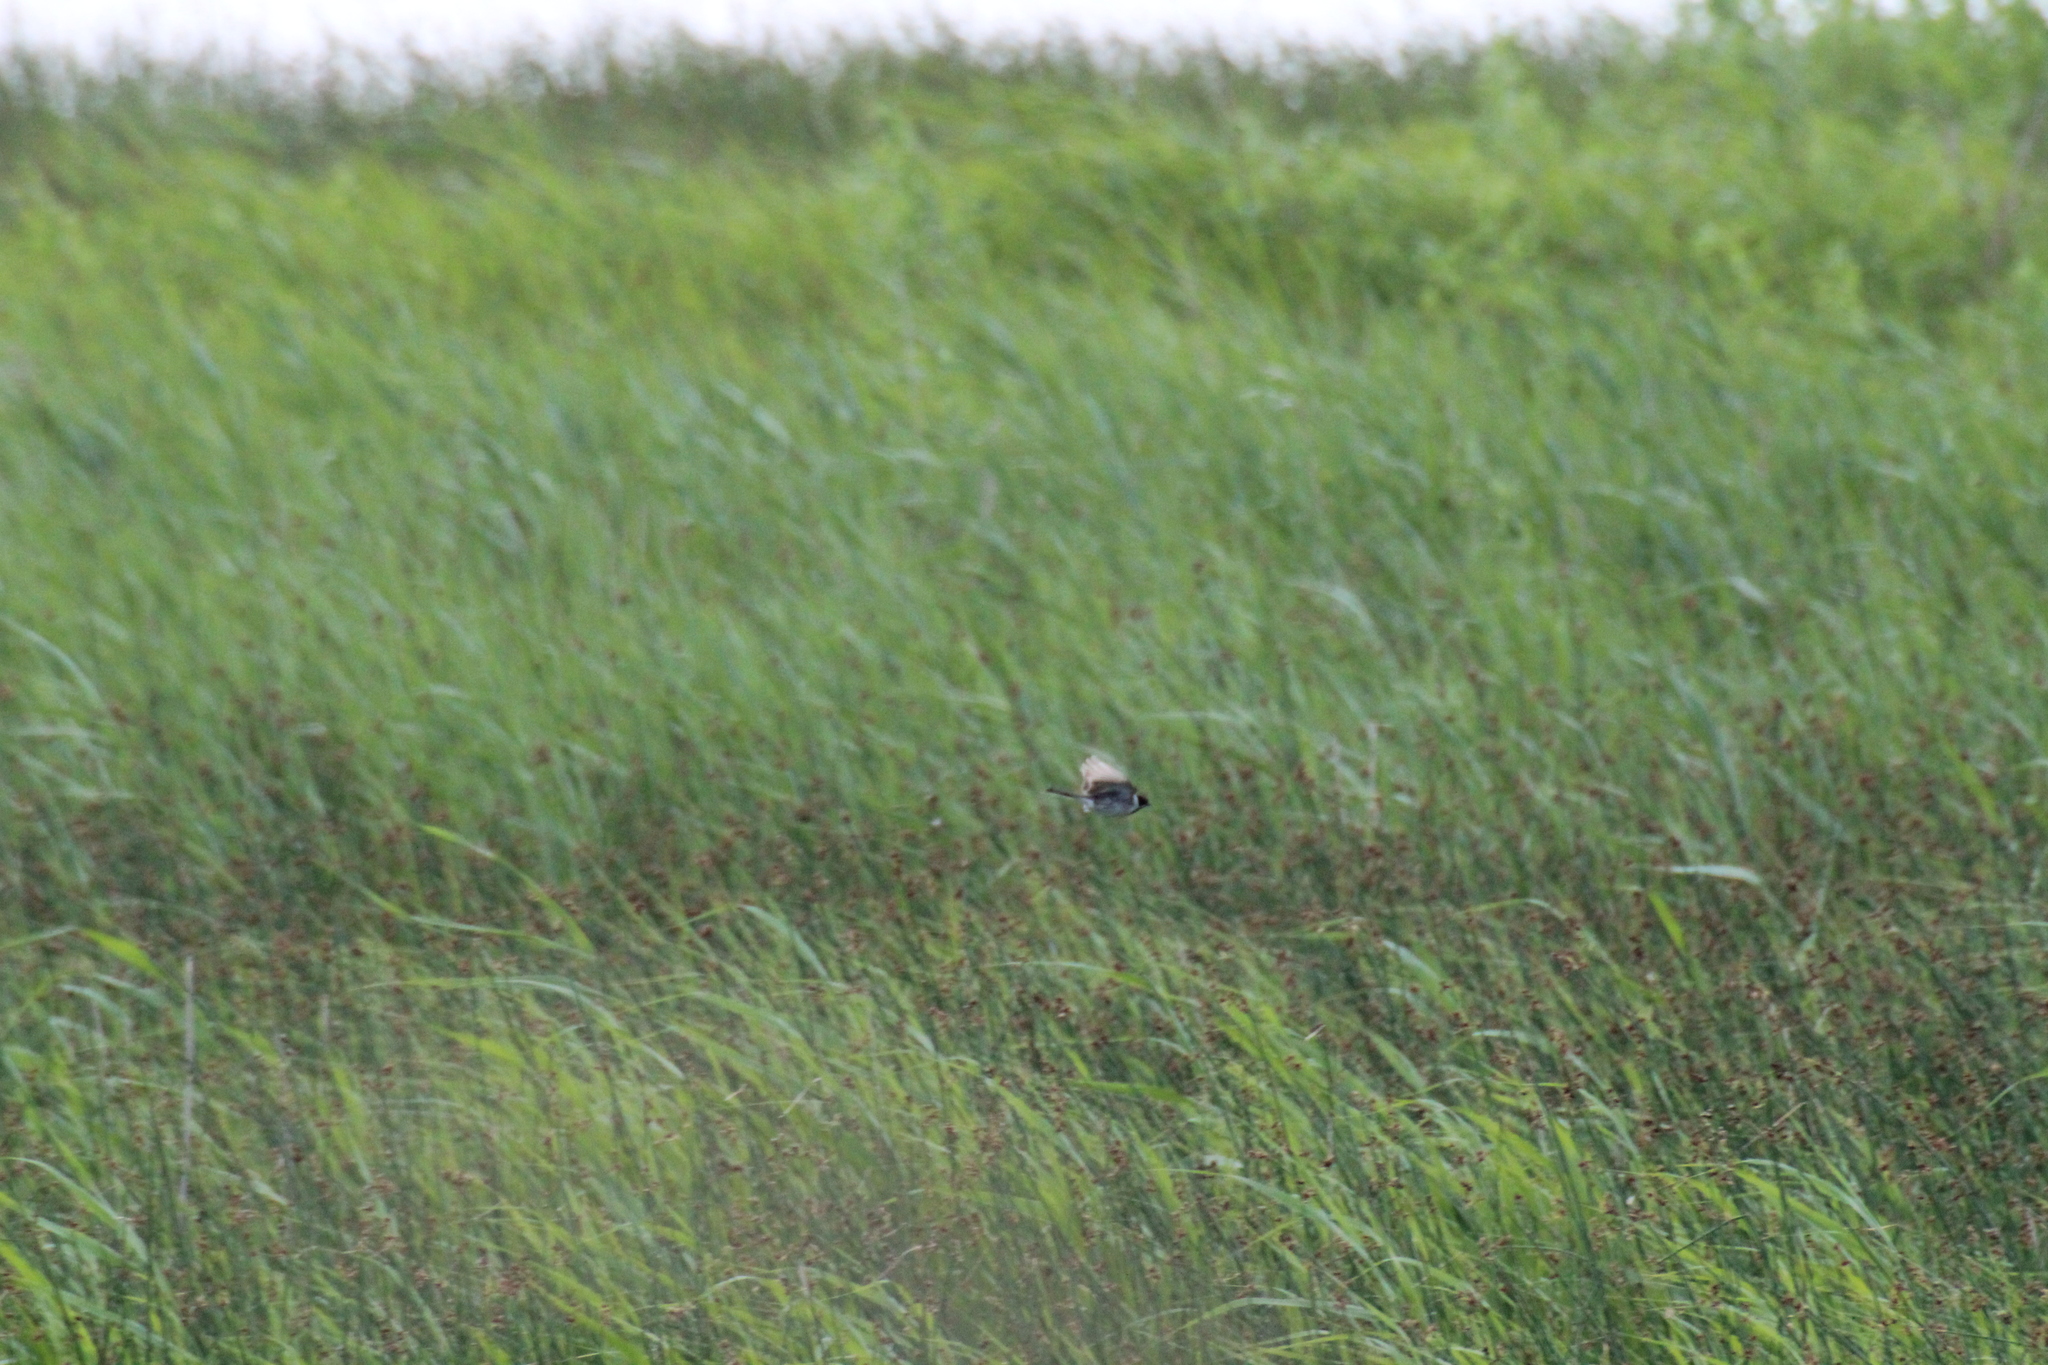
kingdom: Animalia
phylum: Chordata
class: Aves
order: Passeriformes
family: Emberizidae
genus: Emberiza
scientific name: Emberiza schoeniclus
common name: Reed bunting
